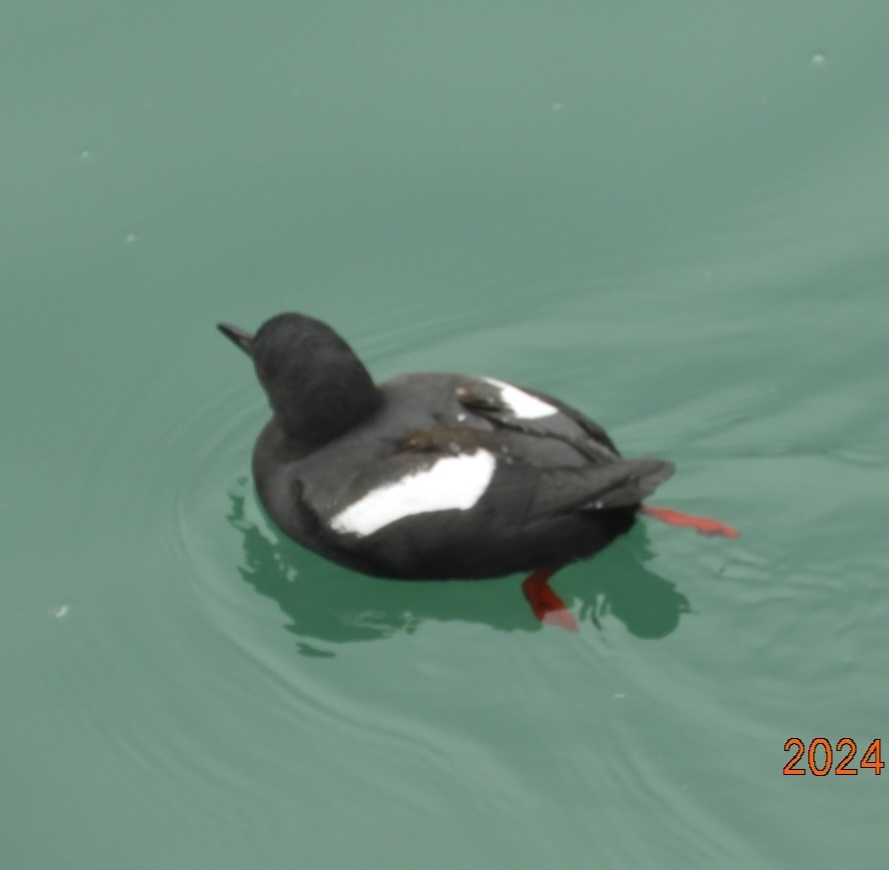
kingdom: Animalia
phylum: Chordata
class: Aves
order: Charadriiformes
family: Alcidae
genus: Cepphus
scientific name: Cepphus columba
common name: Pigeon guillemot
